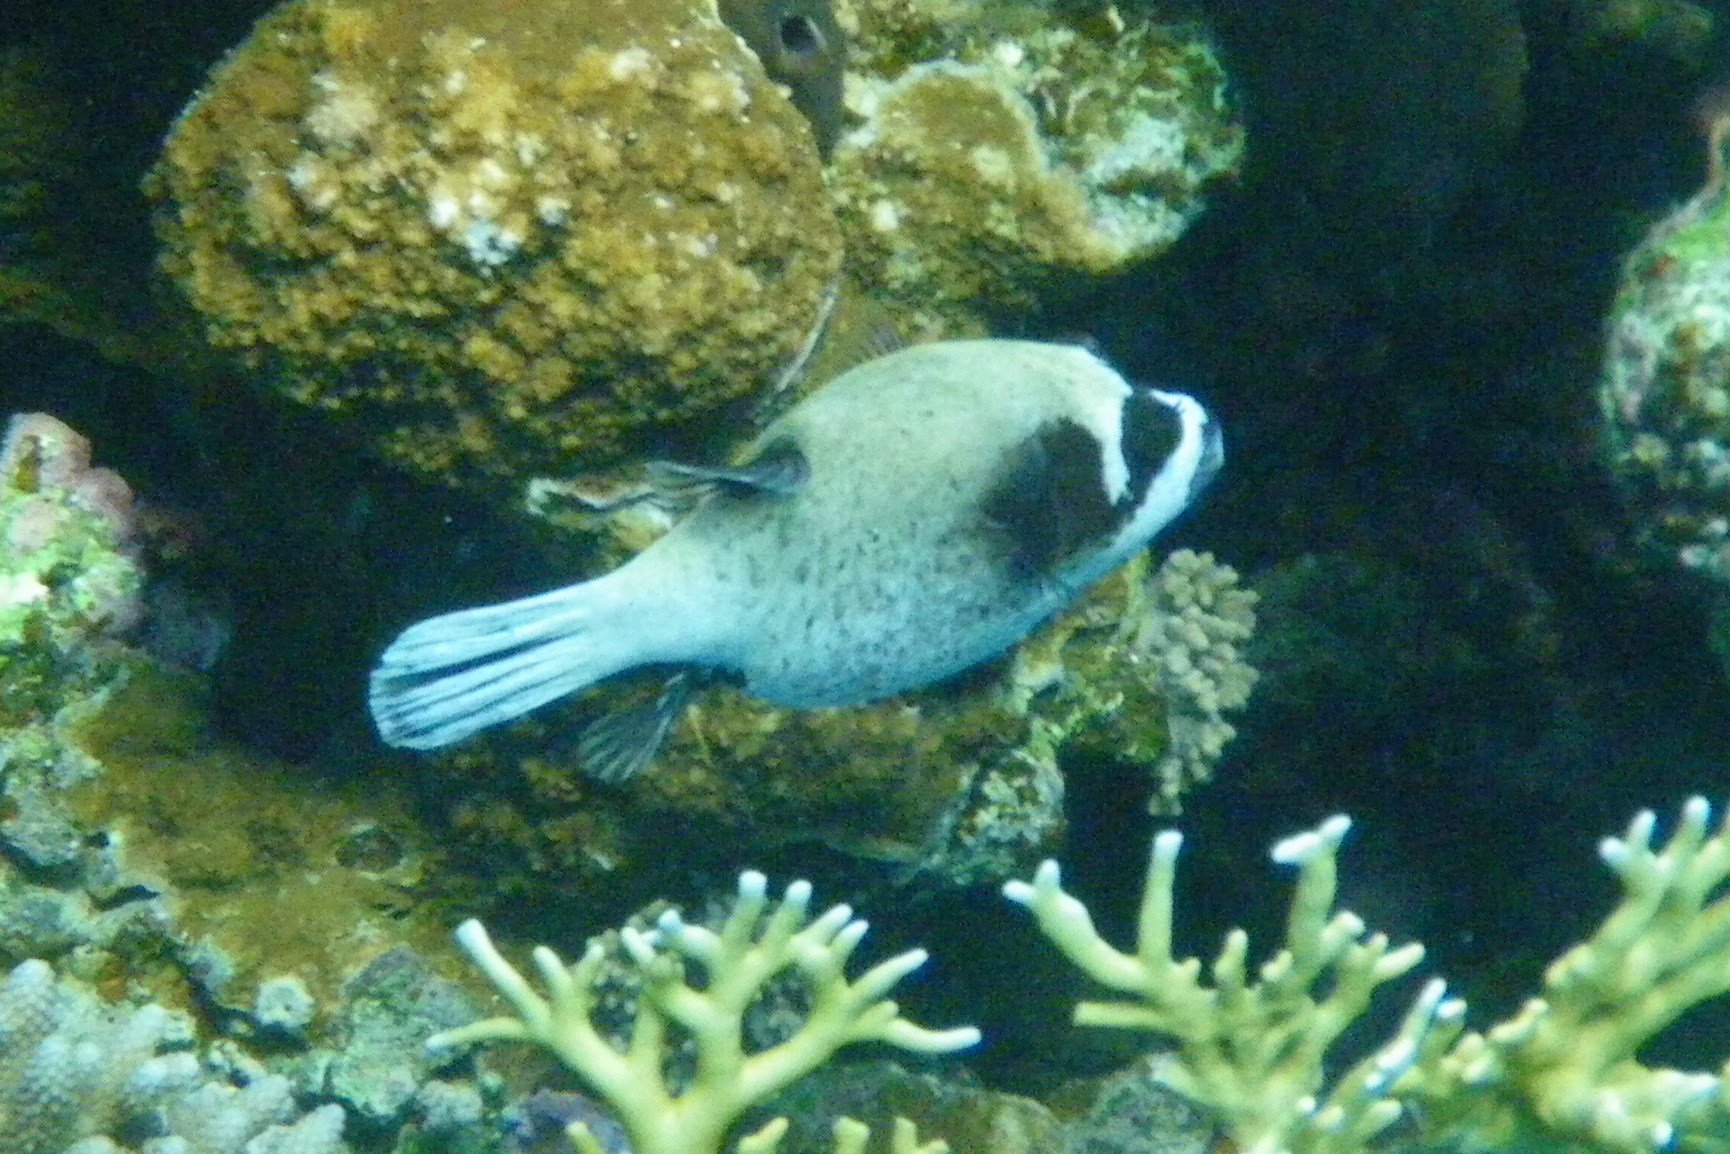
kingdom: Animalia
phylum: Chordata
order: Tetraodontiformes
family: Tetraodontidae
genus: Arothron
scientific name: Arothron diadematus
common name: Masked puffer
